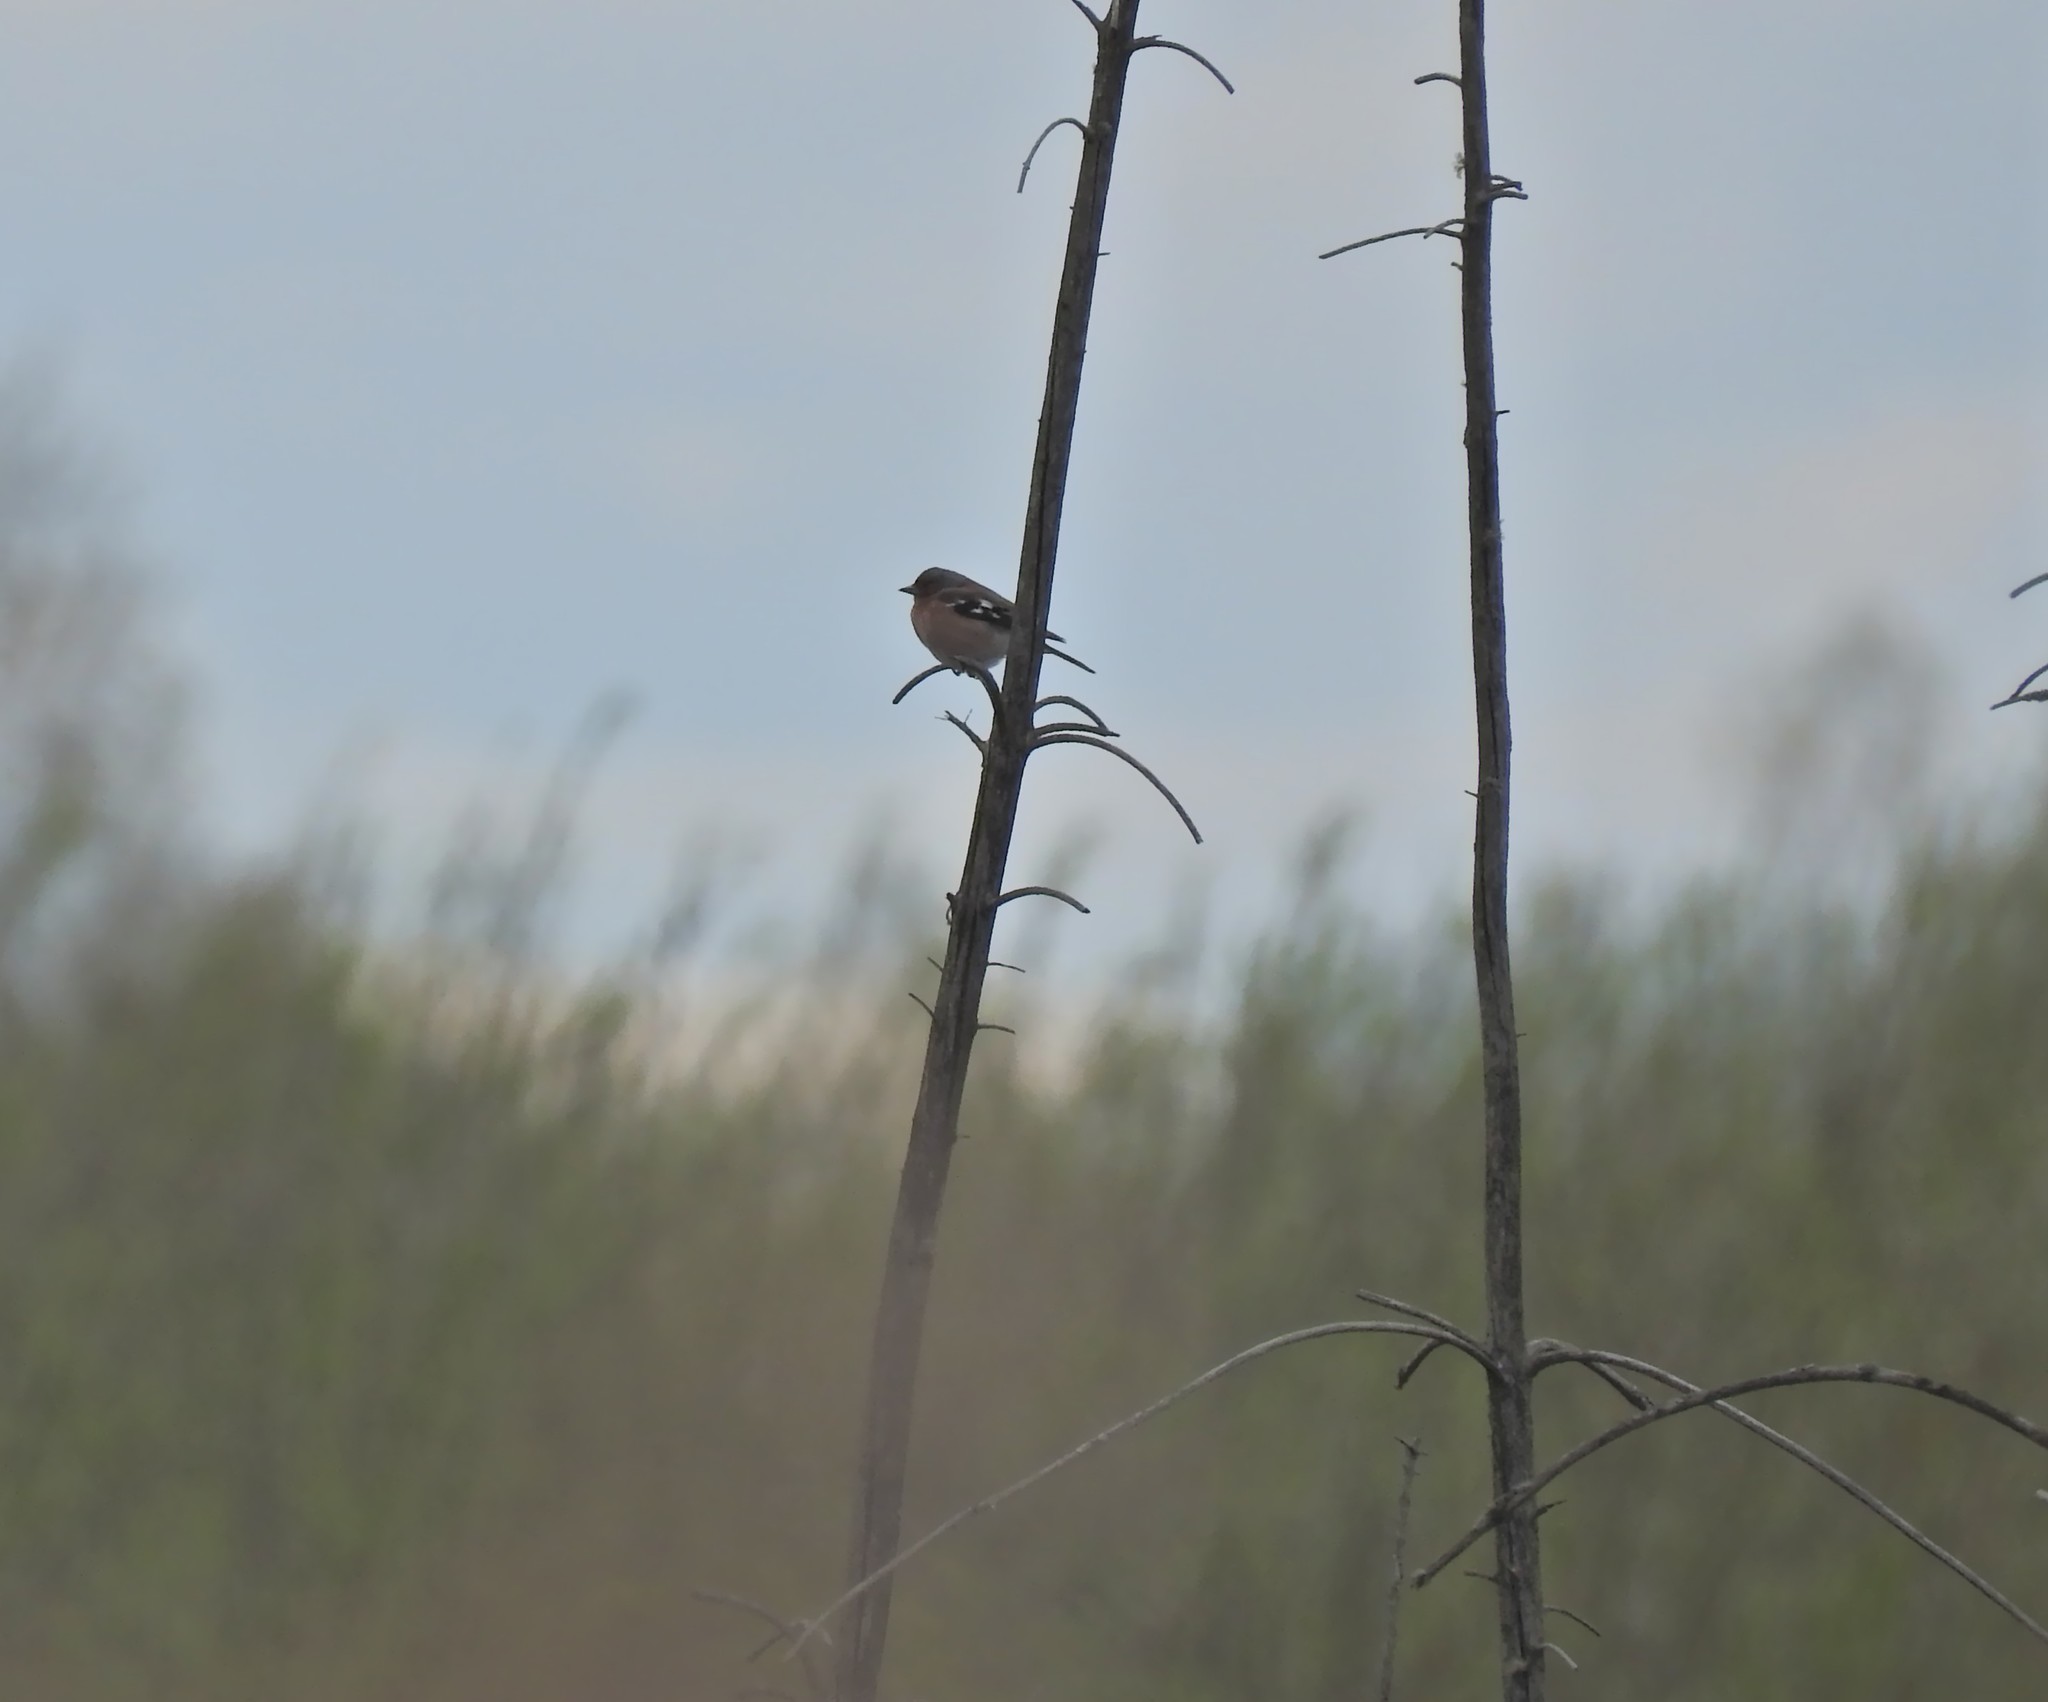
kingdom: Animalia
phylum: Chordata
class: Aves
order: Passeriformes
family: Fringillidae
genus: Fringilla
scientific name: Fringilla coelebs
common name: Common chaffinch
